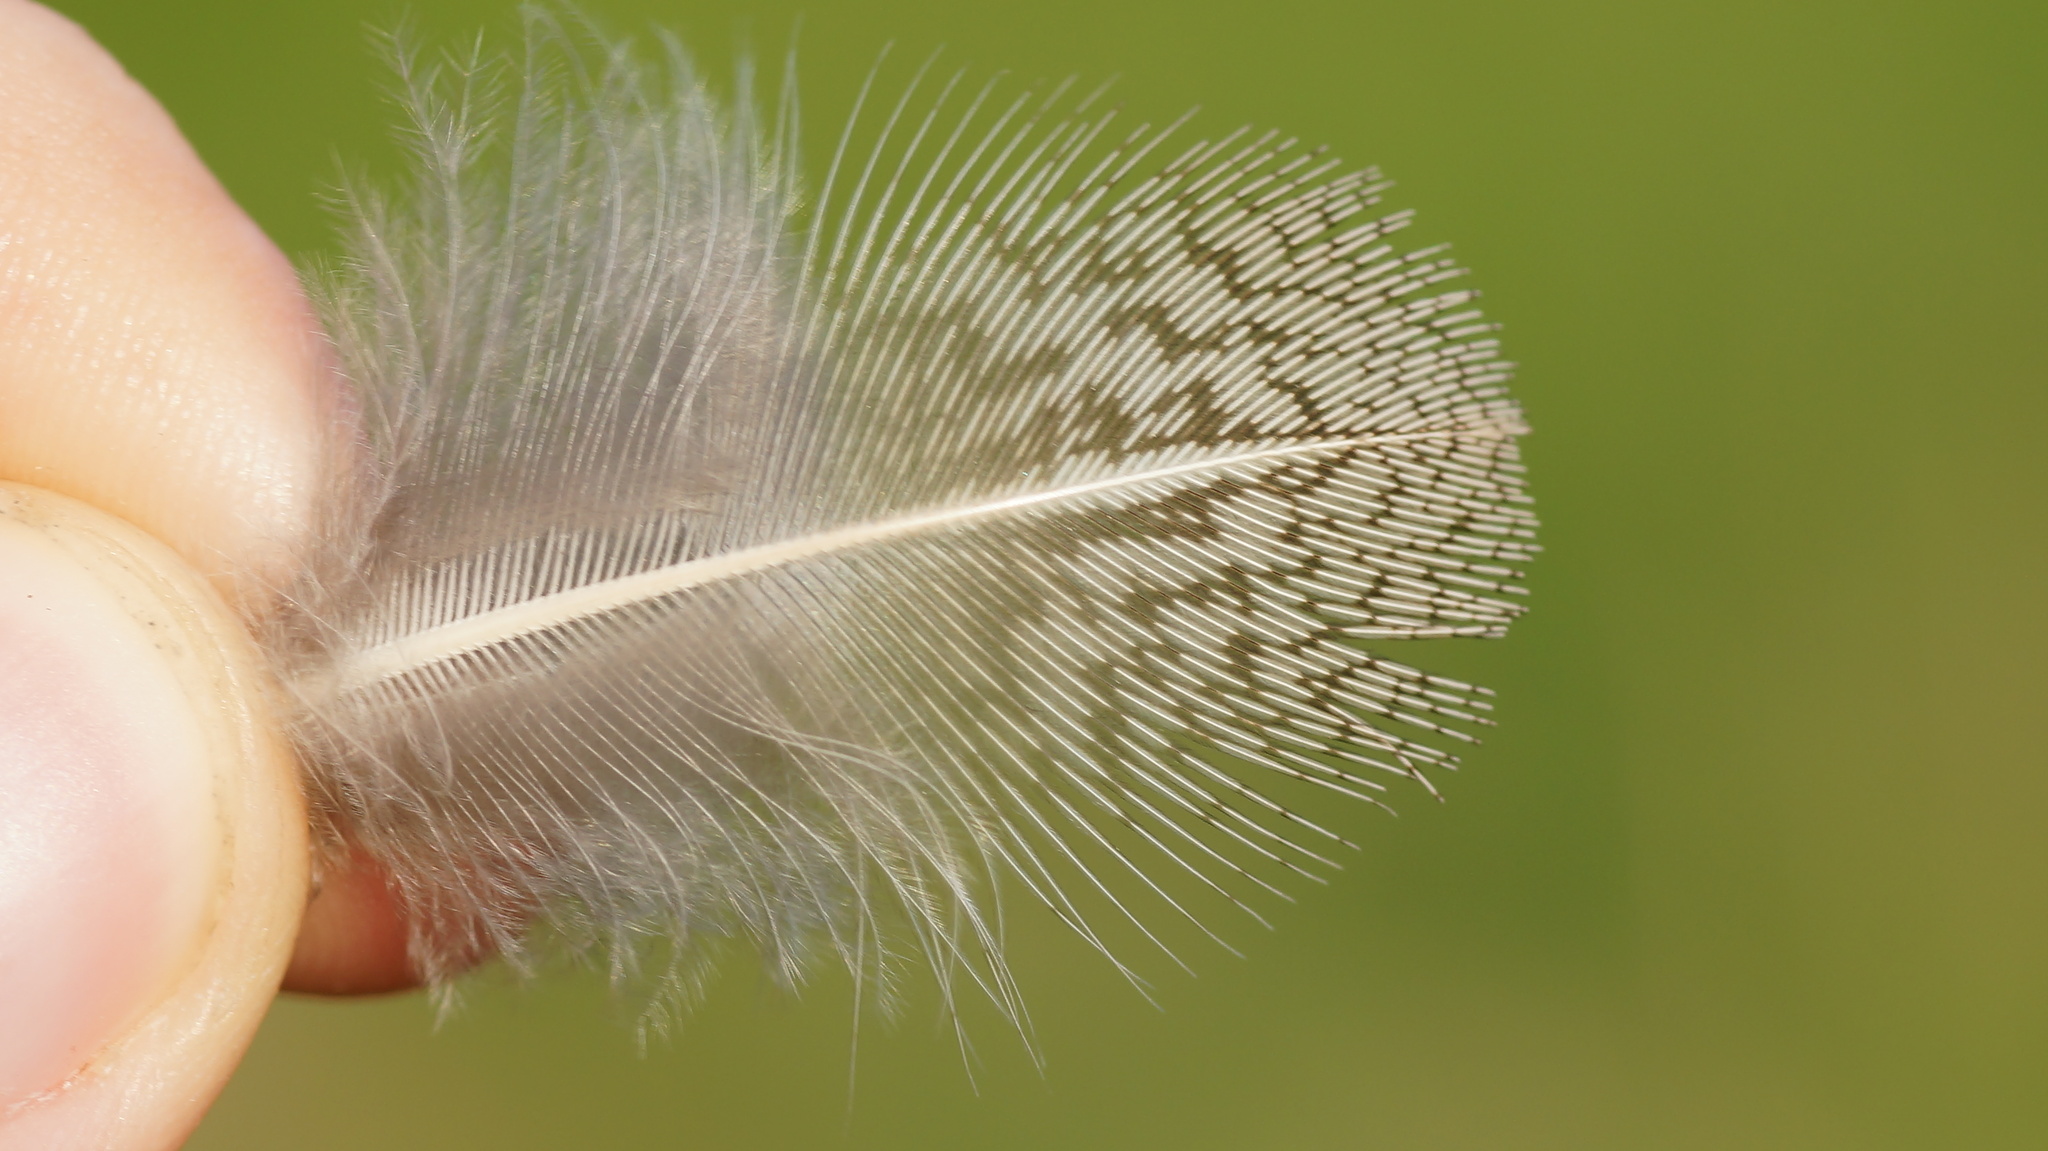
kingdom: Animalia
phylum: Chordata
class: Aves
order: Galliformes
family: Phasianidae
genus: Perdix
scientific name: Perdix perdix
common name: Grey partridge
